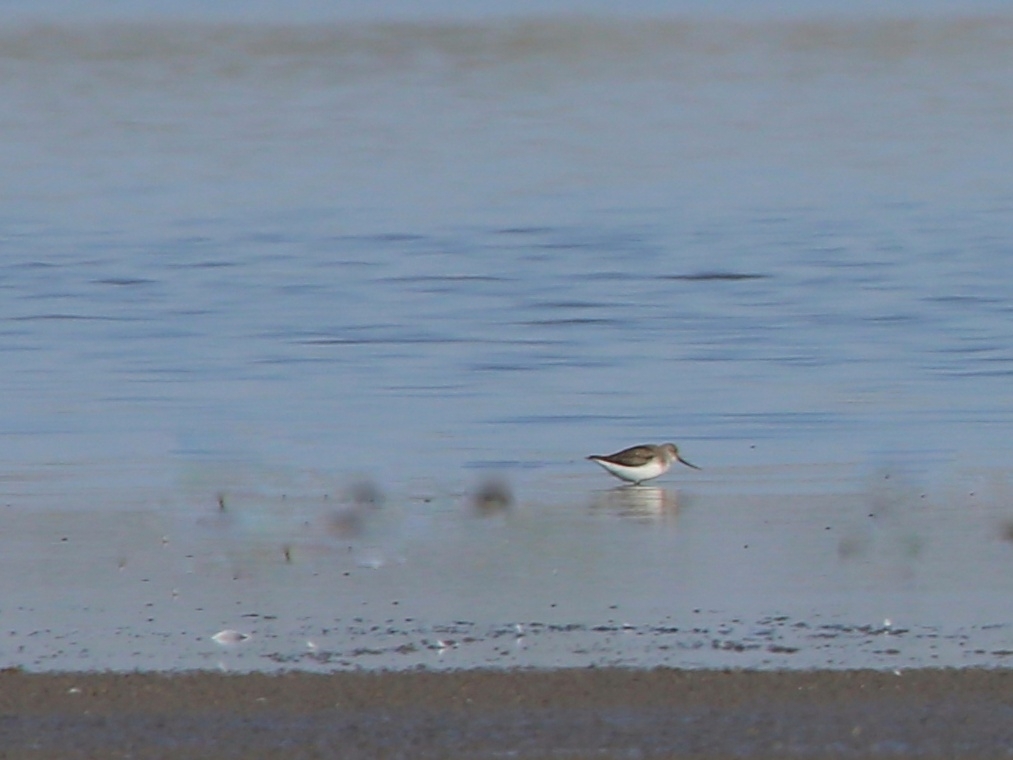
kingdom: Animalia
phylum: Chordata
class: Aves
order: Charadriiformes
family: Scolopacidae
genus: Xenus
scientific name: Xenus cinereus
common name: Terek sandpiper
